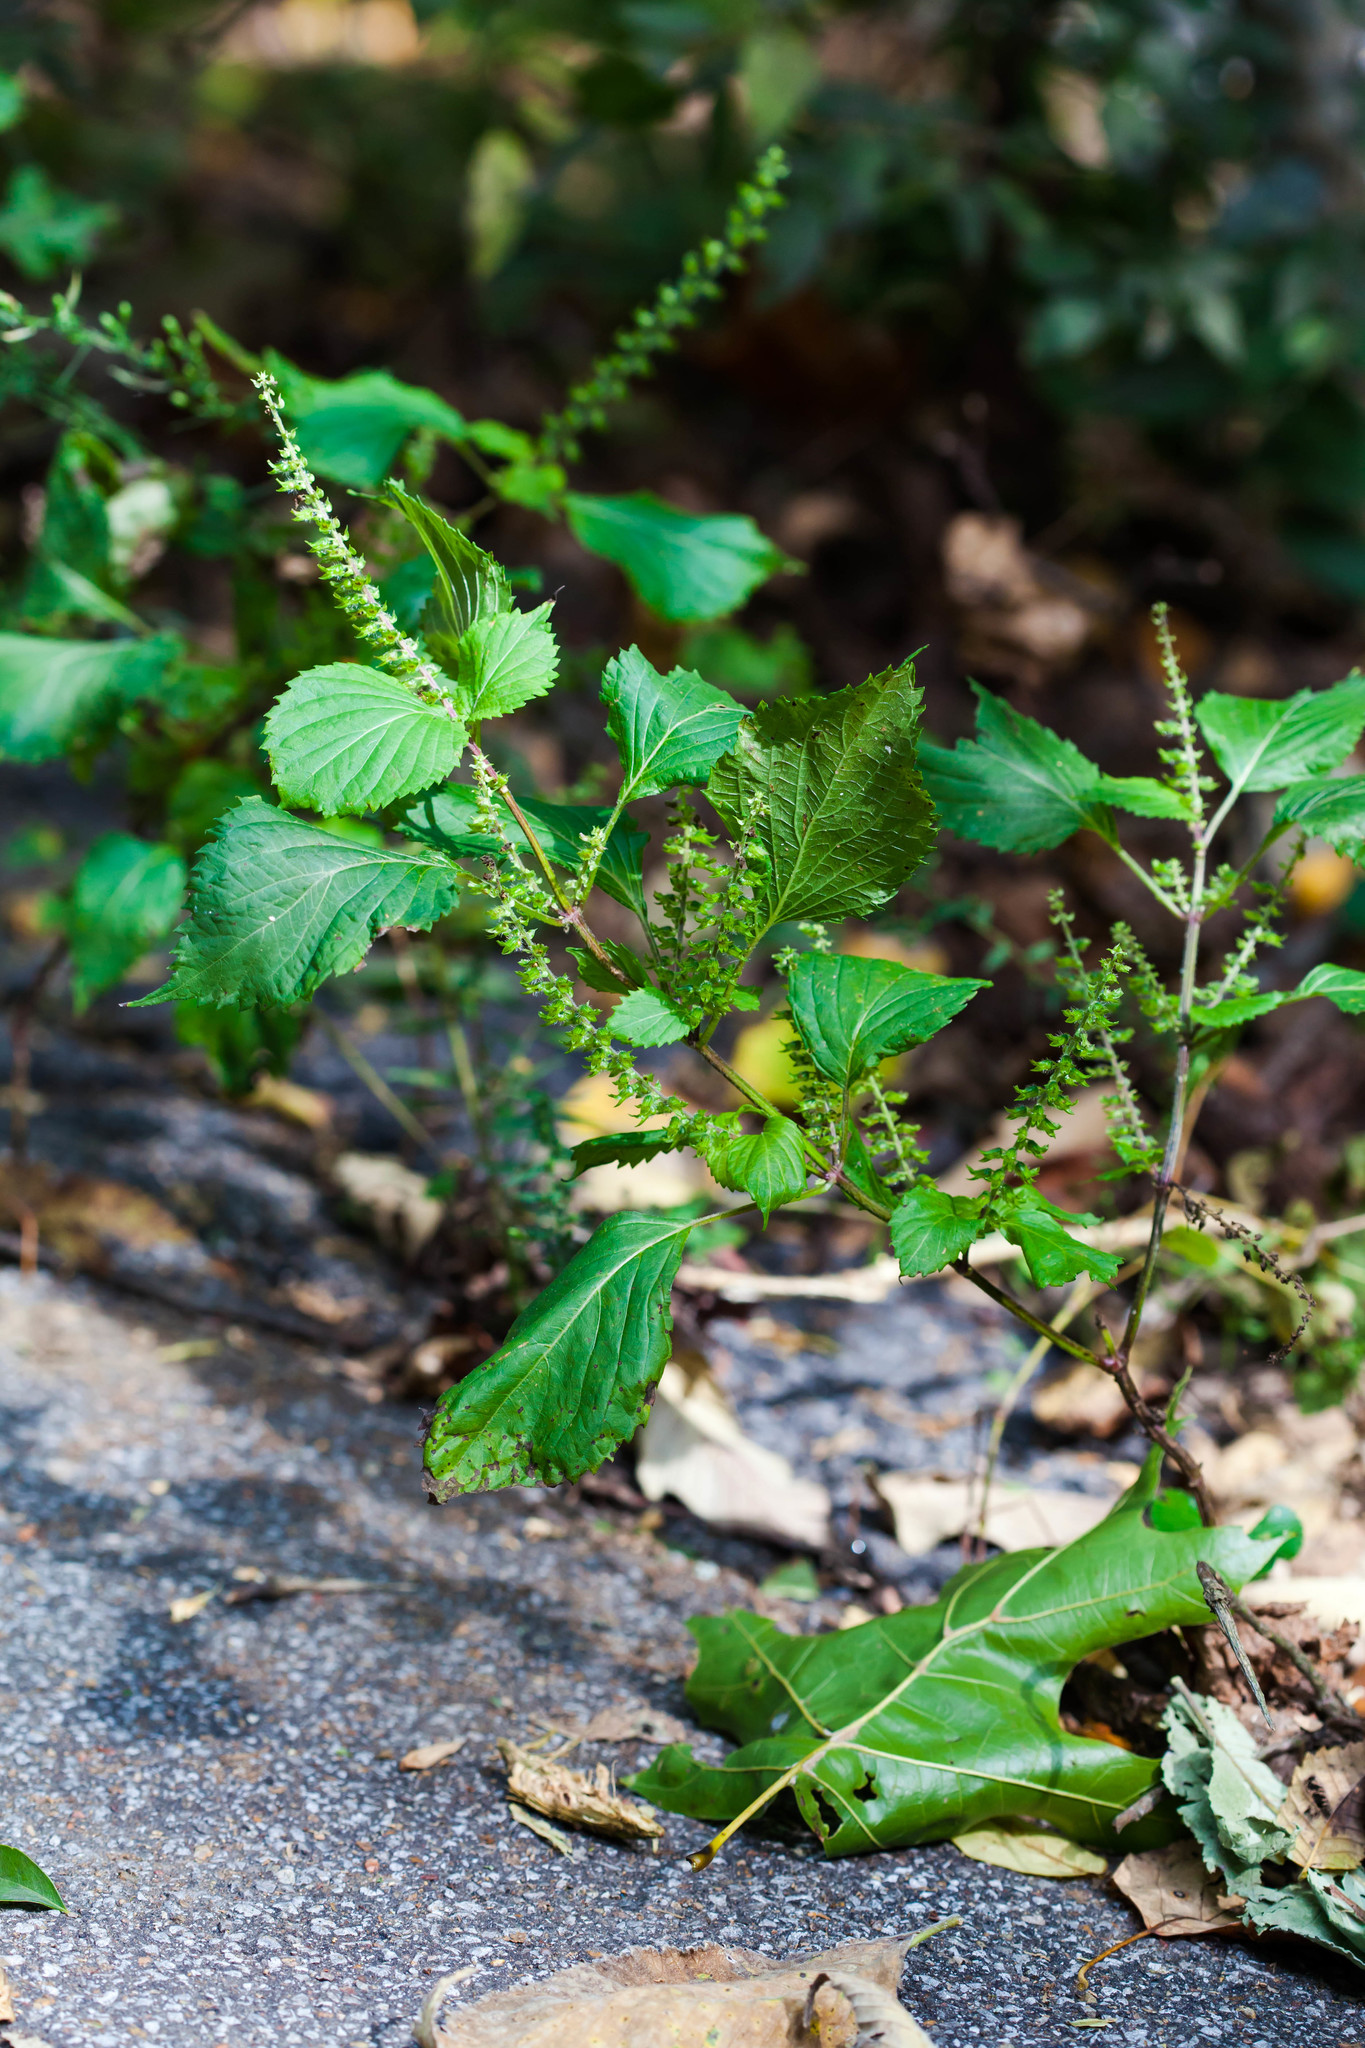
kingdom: Plantae
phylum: Tracheophyta
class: Magnoliopsida
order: Lamiales
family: Lamiaceae
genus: Perilla
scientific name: Perilla frutescens
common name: Perilla
